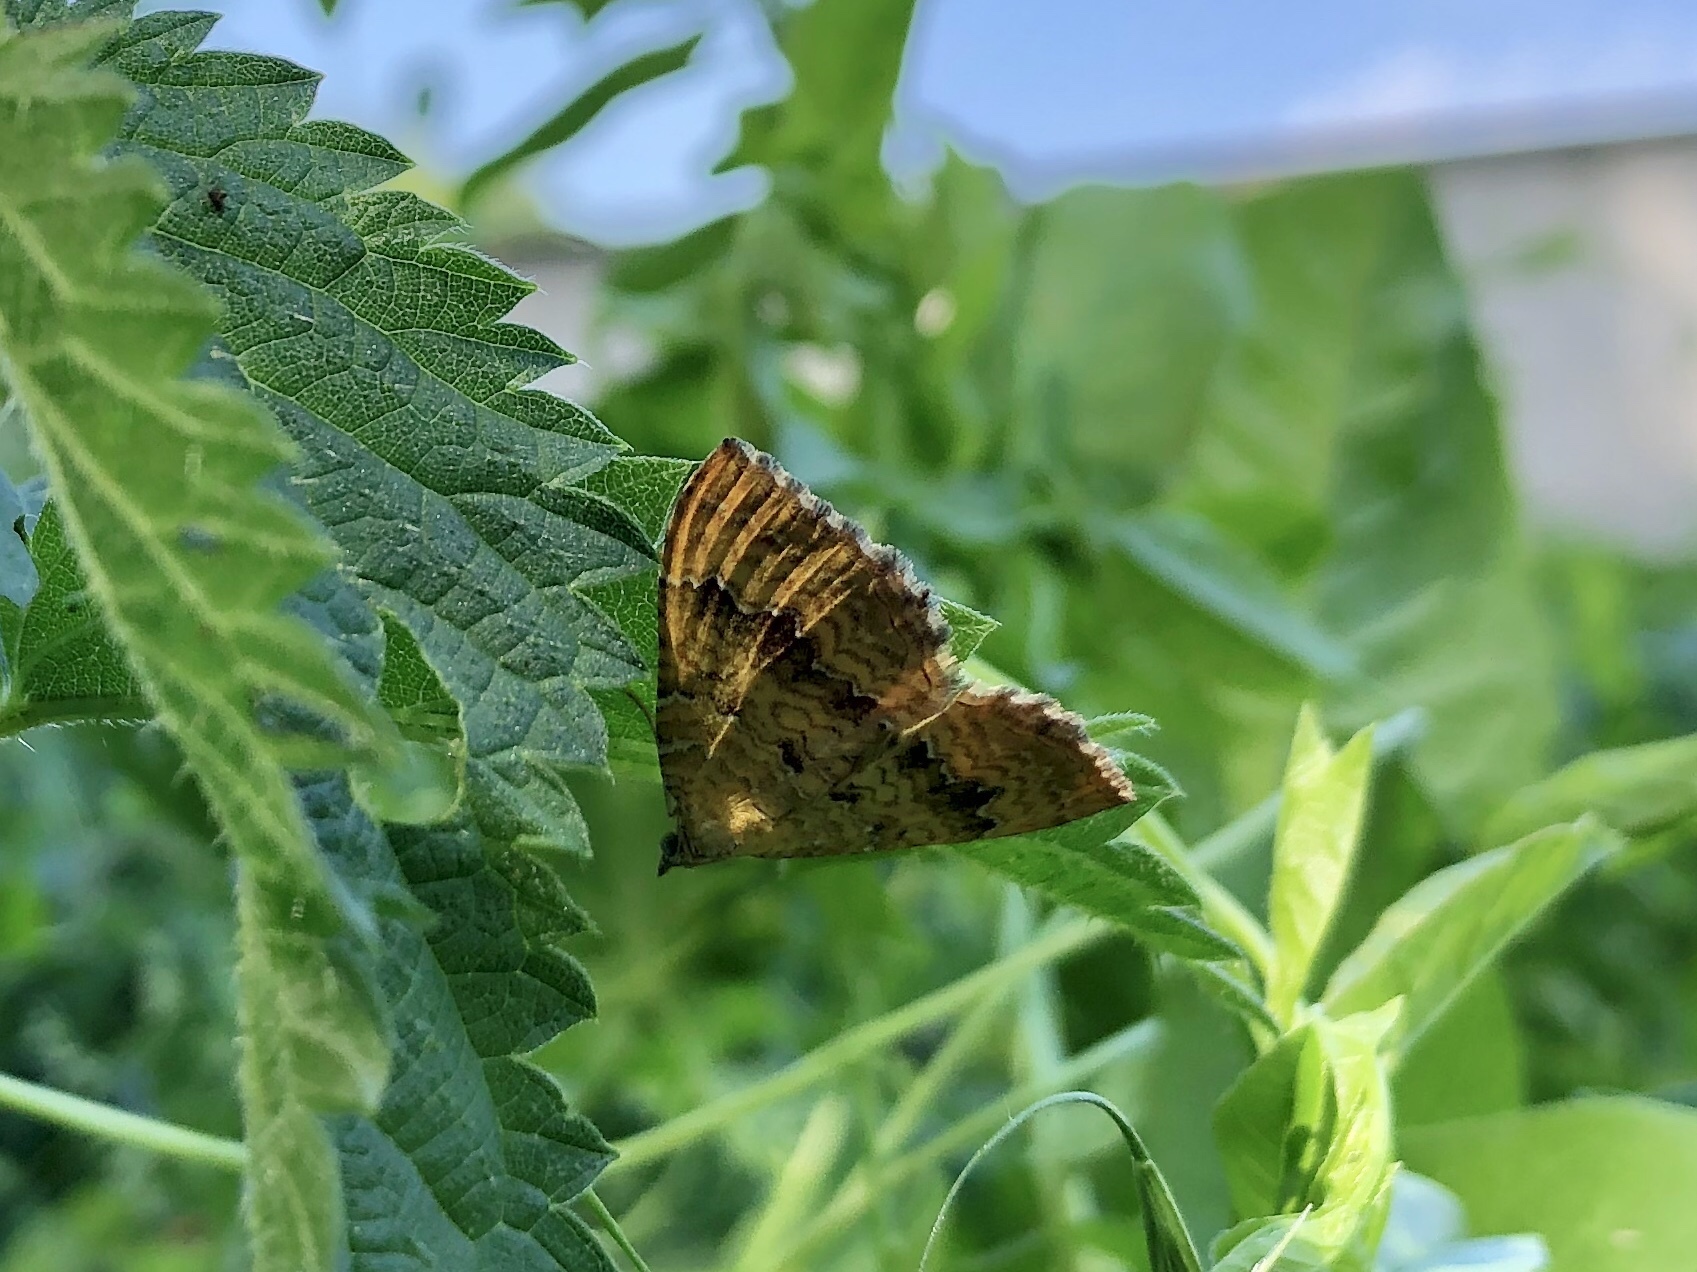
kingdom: Animalia
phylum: Arthropoda
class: Insecta
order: Lepidoptera
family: Geometridae
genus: Camptogramma
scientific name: Camptogramma bilineata
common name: Yellow shell
